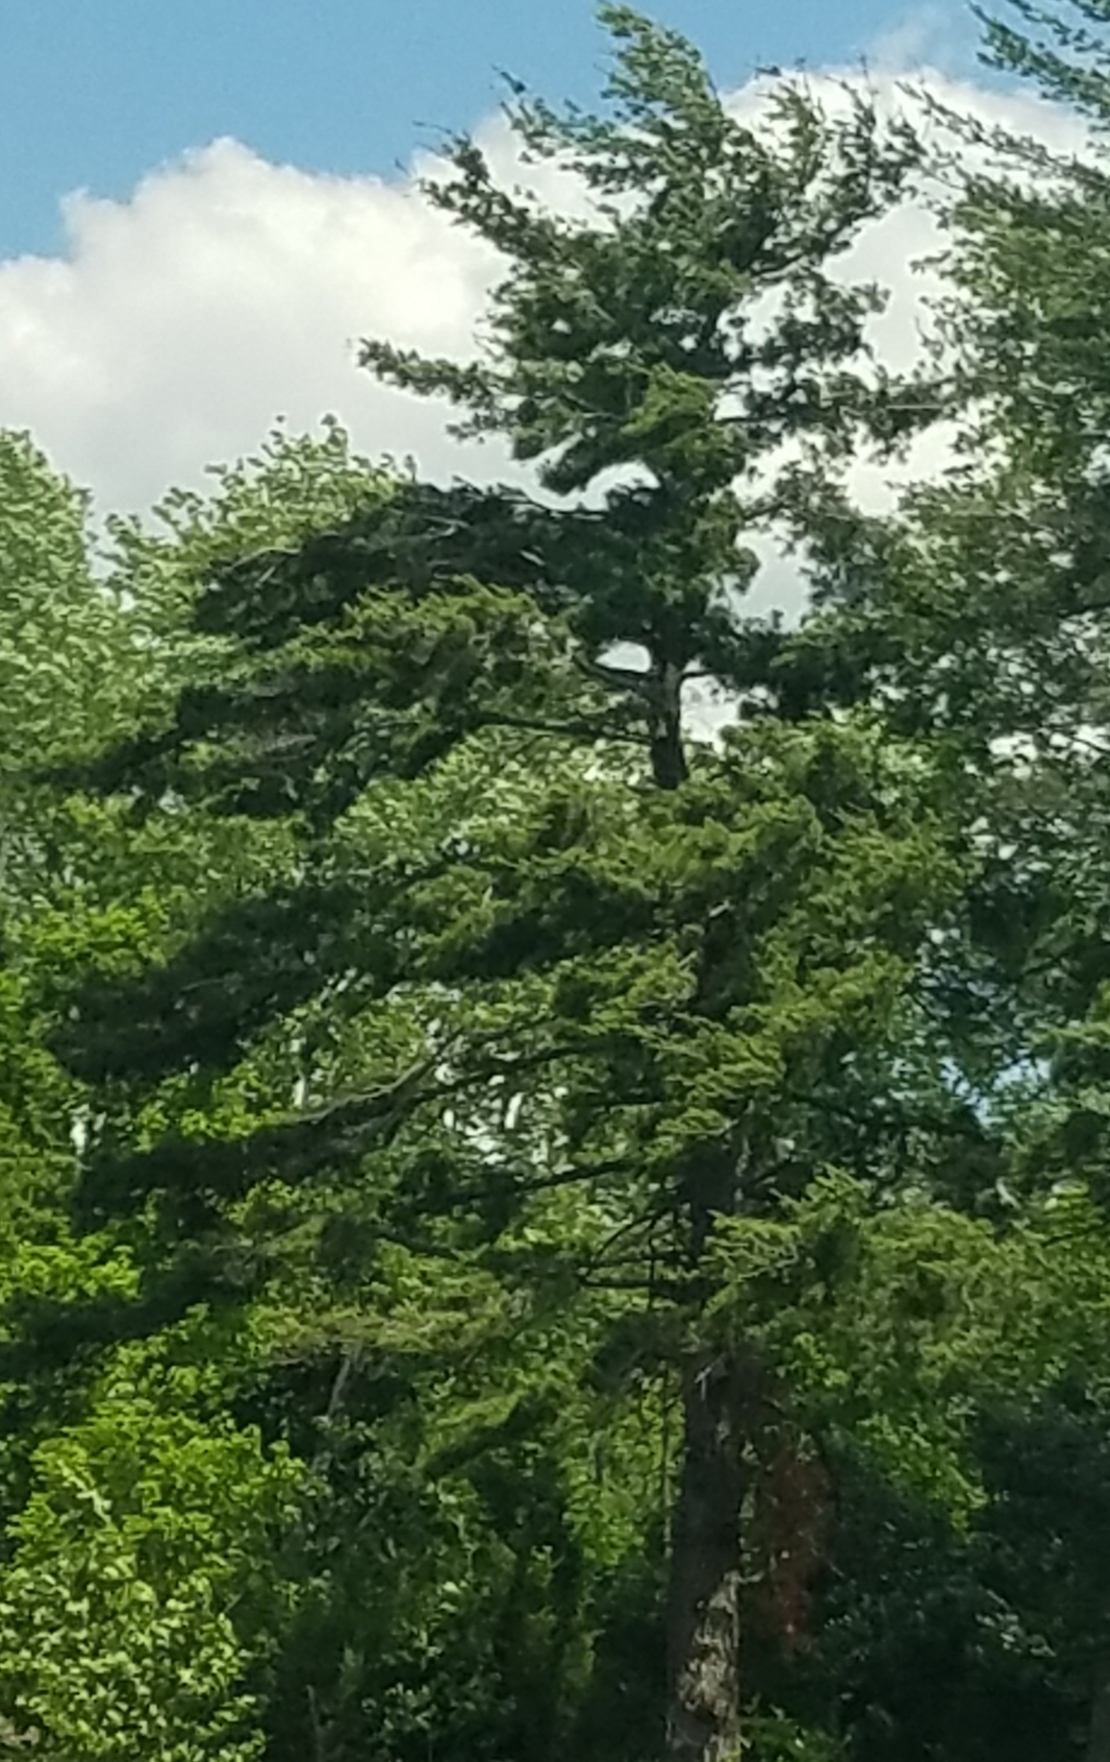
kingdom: Plantae
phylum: Tracheophyta
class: Pinopsida
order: Pinales
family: Pinaceae
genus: Pinus
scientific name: Pinus strobus
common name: Weymouth pine
